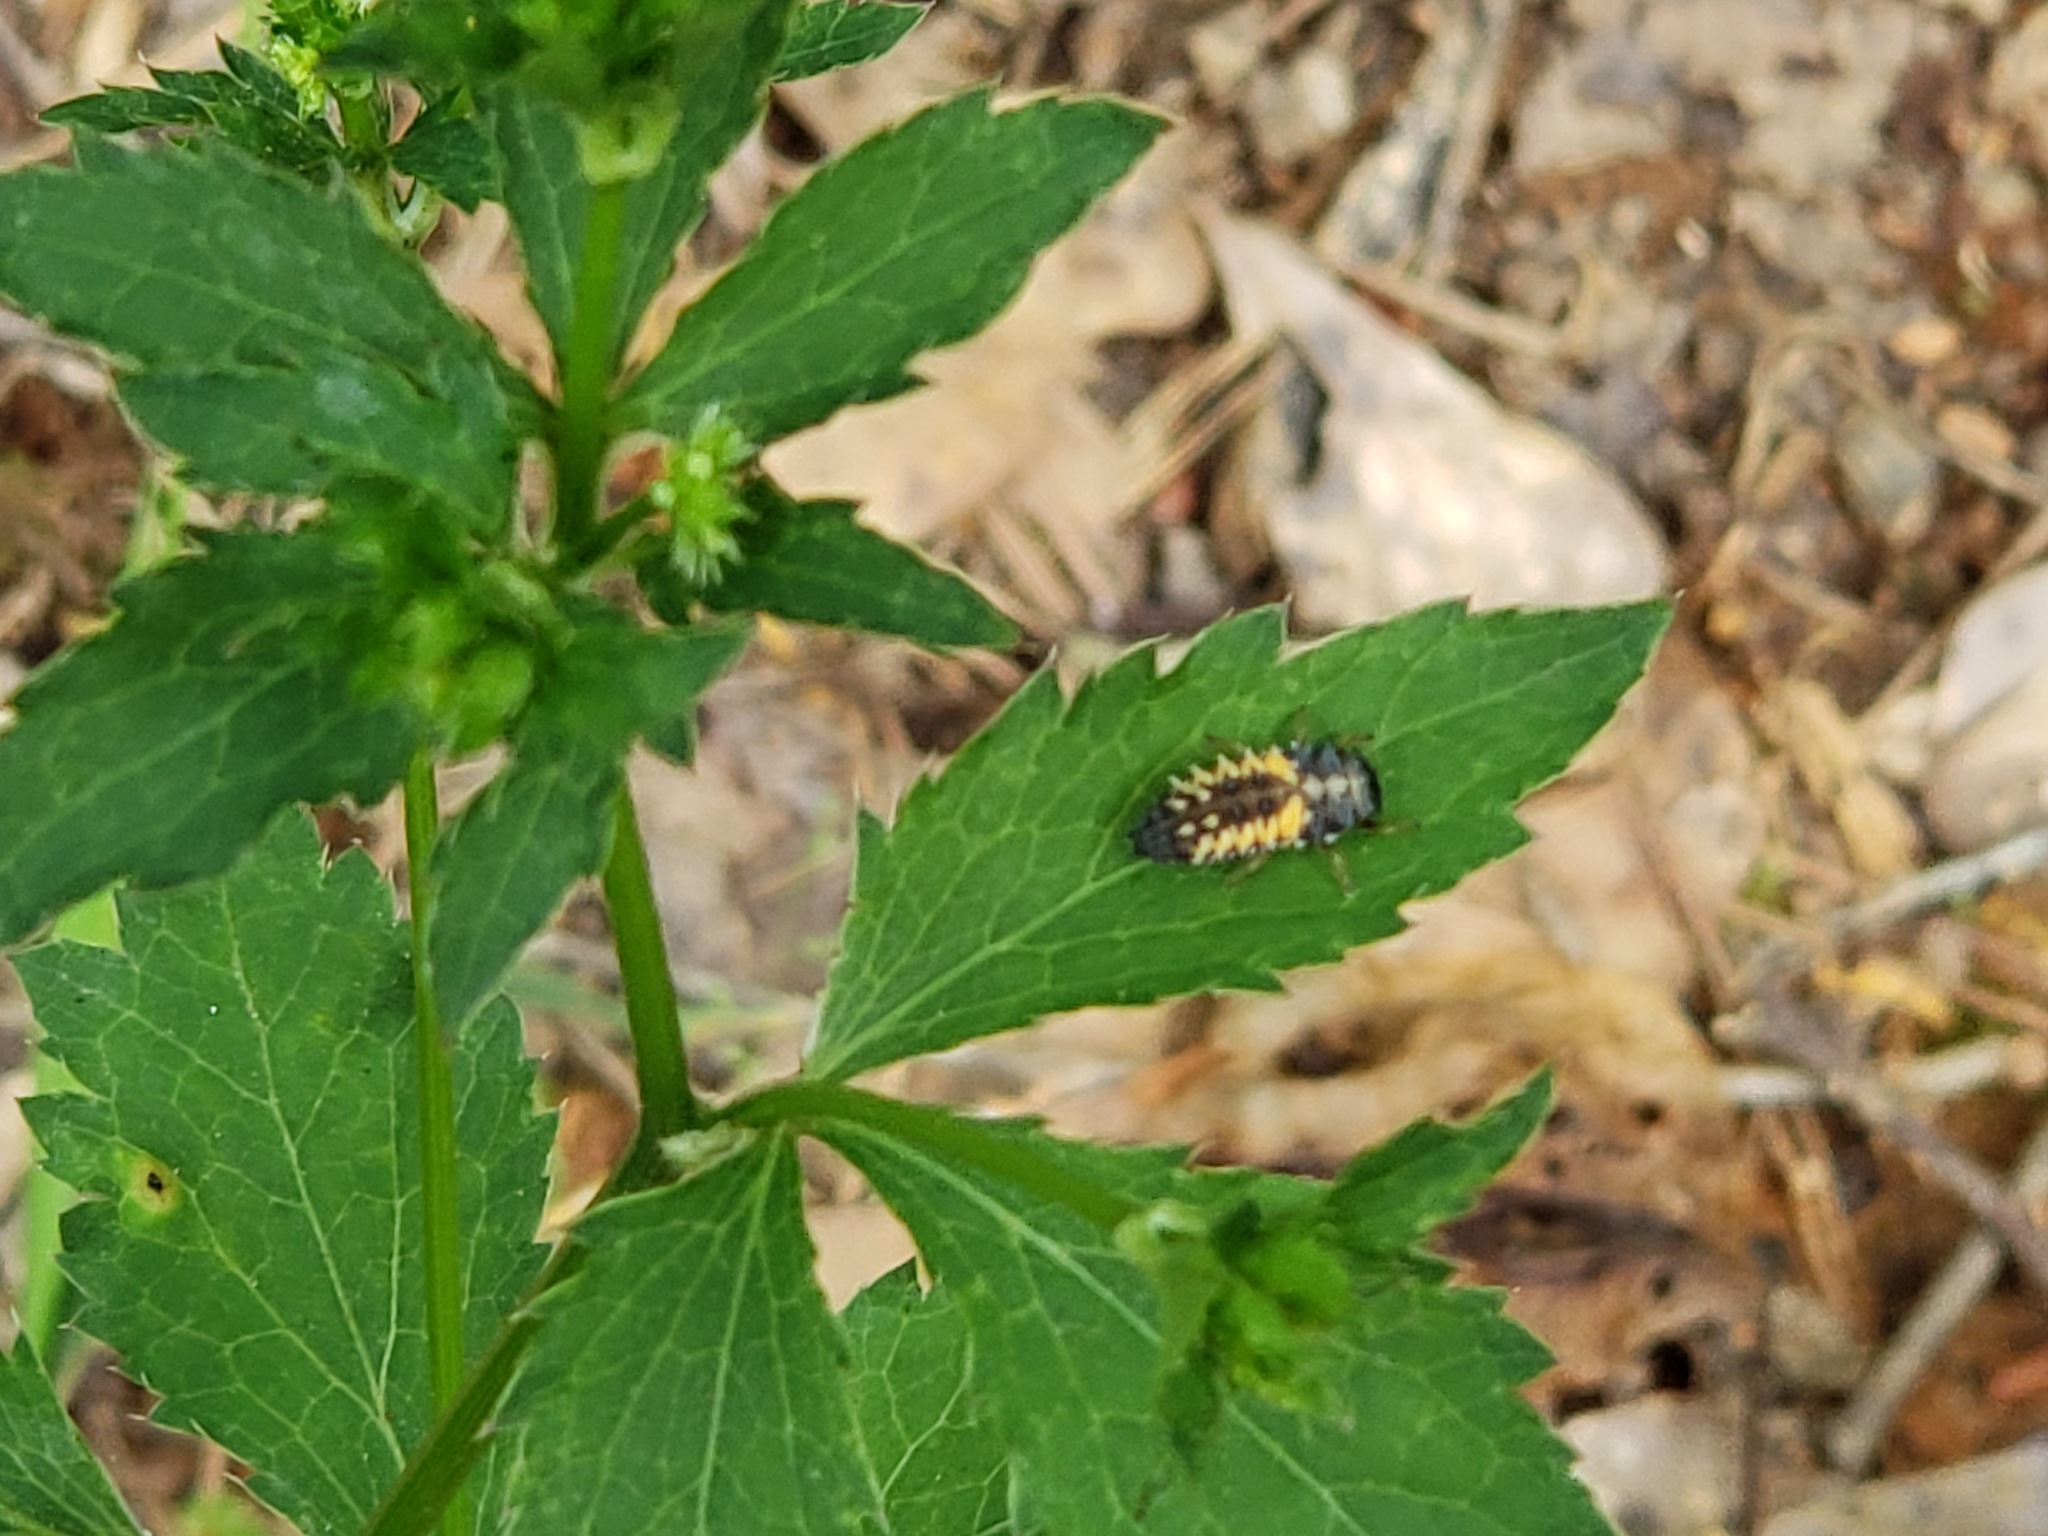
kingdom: Animalia
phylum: Arthropoda
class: Insecta
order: Coleoptera
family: Coccinellidae
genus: Harmonia
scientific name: Harmonia axyridis
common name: Harlequin ladybird
